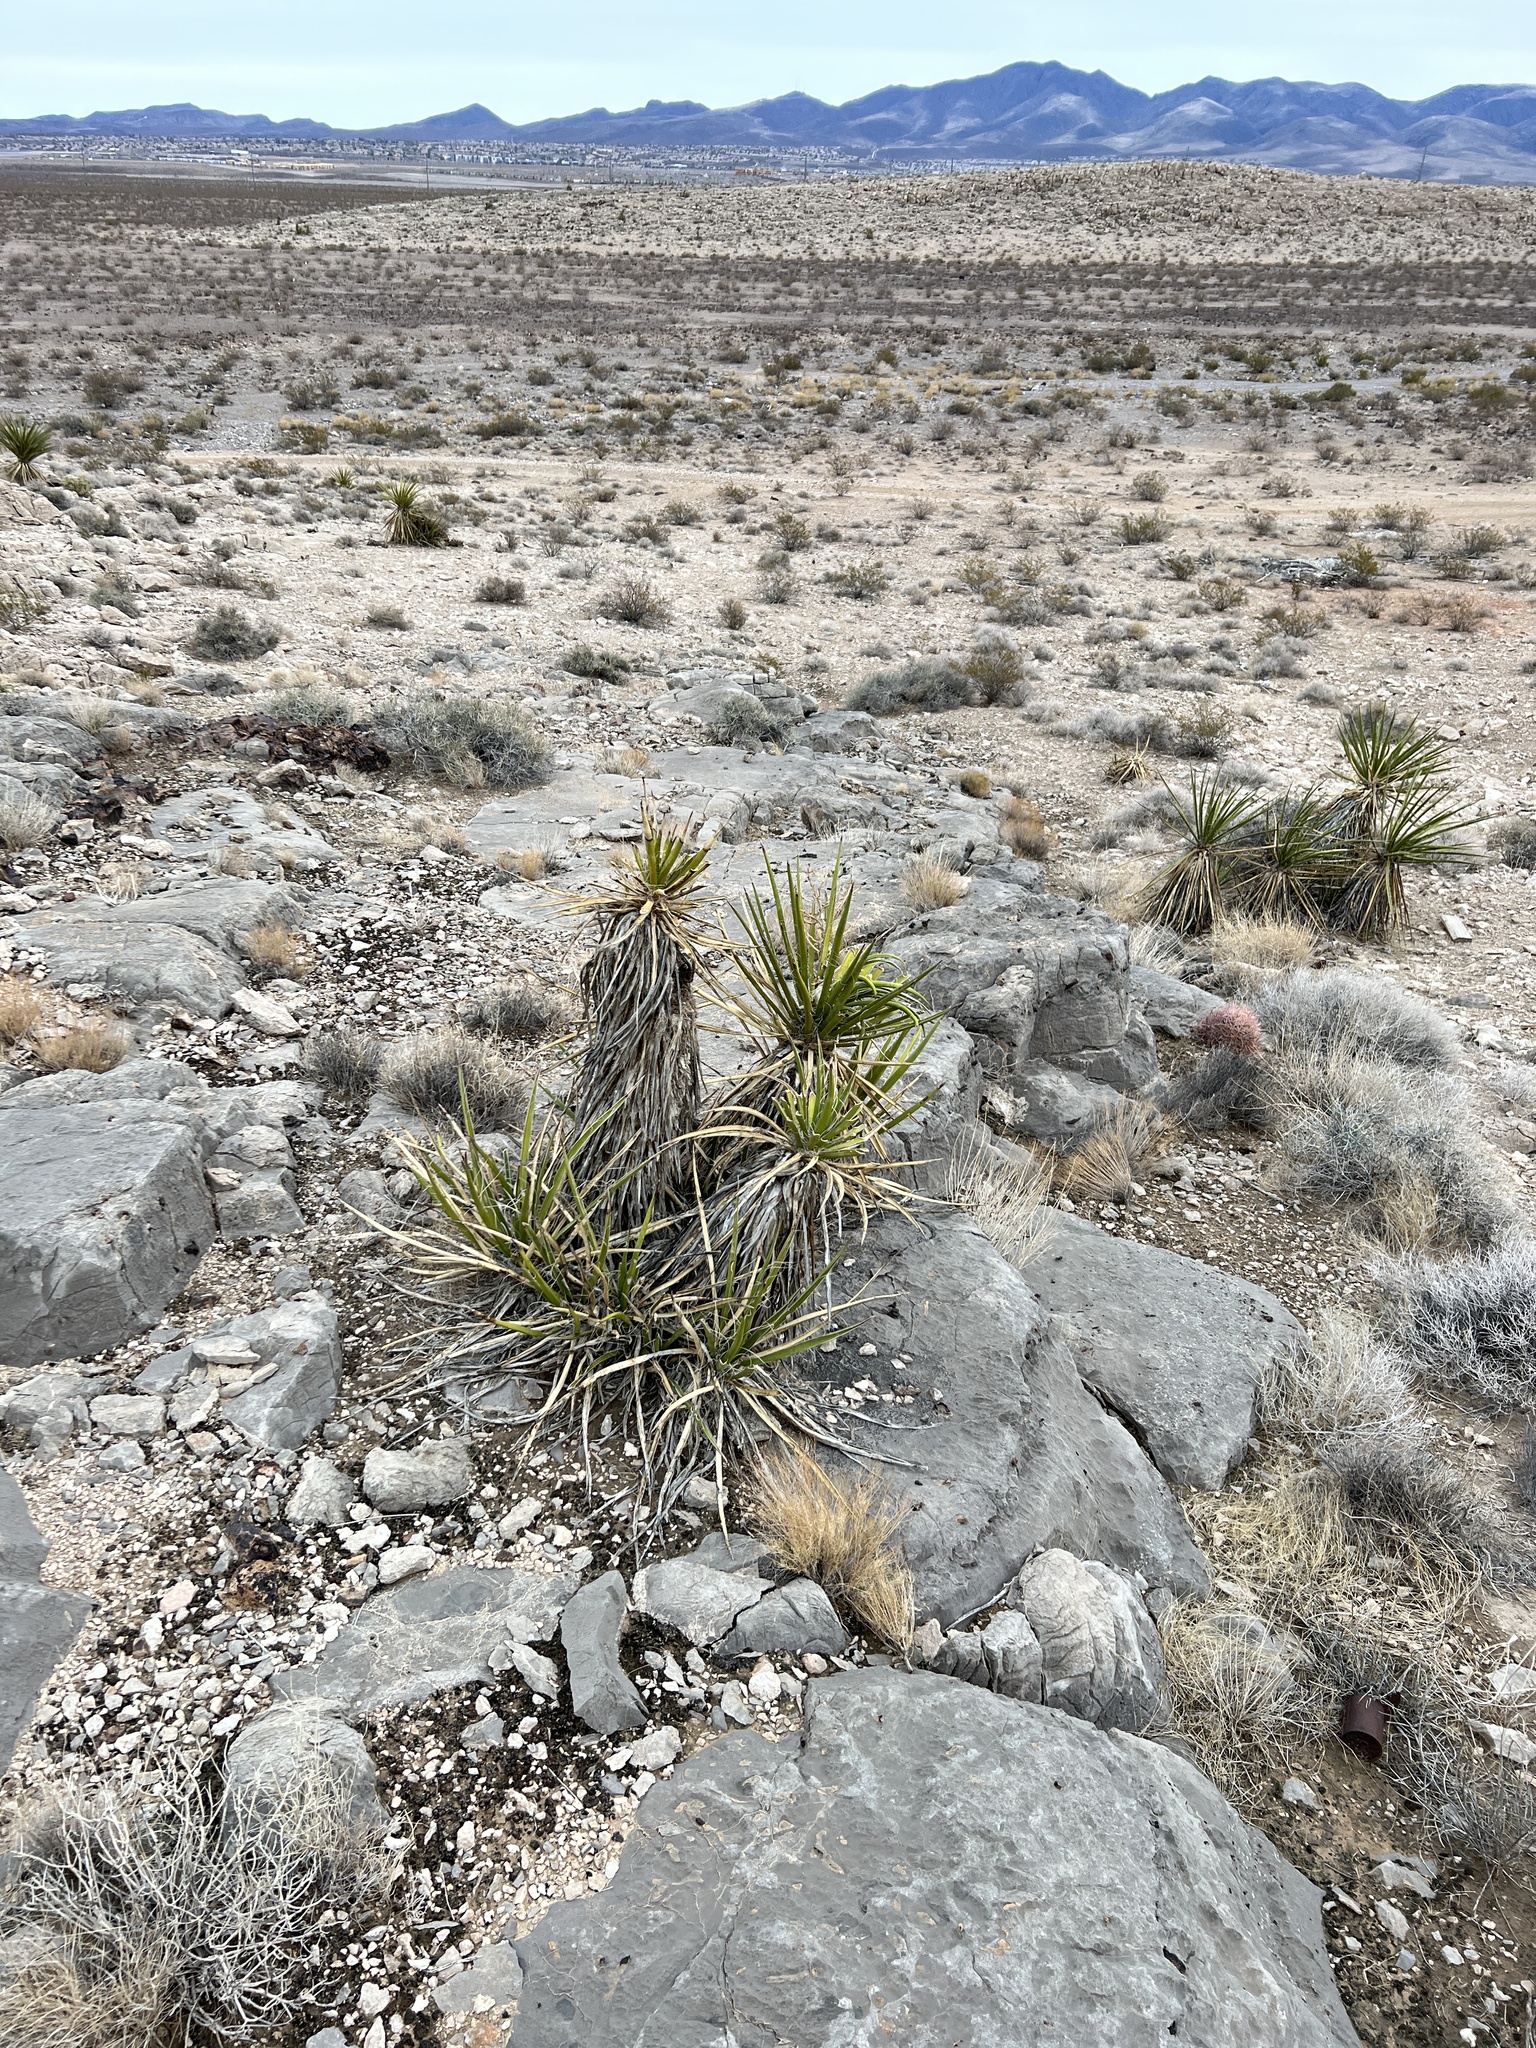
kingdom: Plantae
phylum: Tracheophyta
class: Liliopsida
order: Asparagales
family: Asparagaceae
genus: Yucca
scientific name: Yucca schidigera
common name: Mojave yucca
